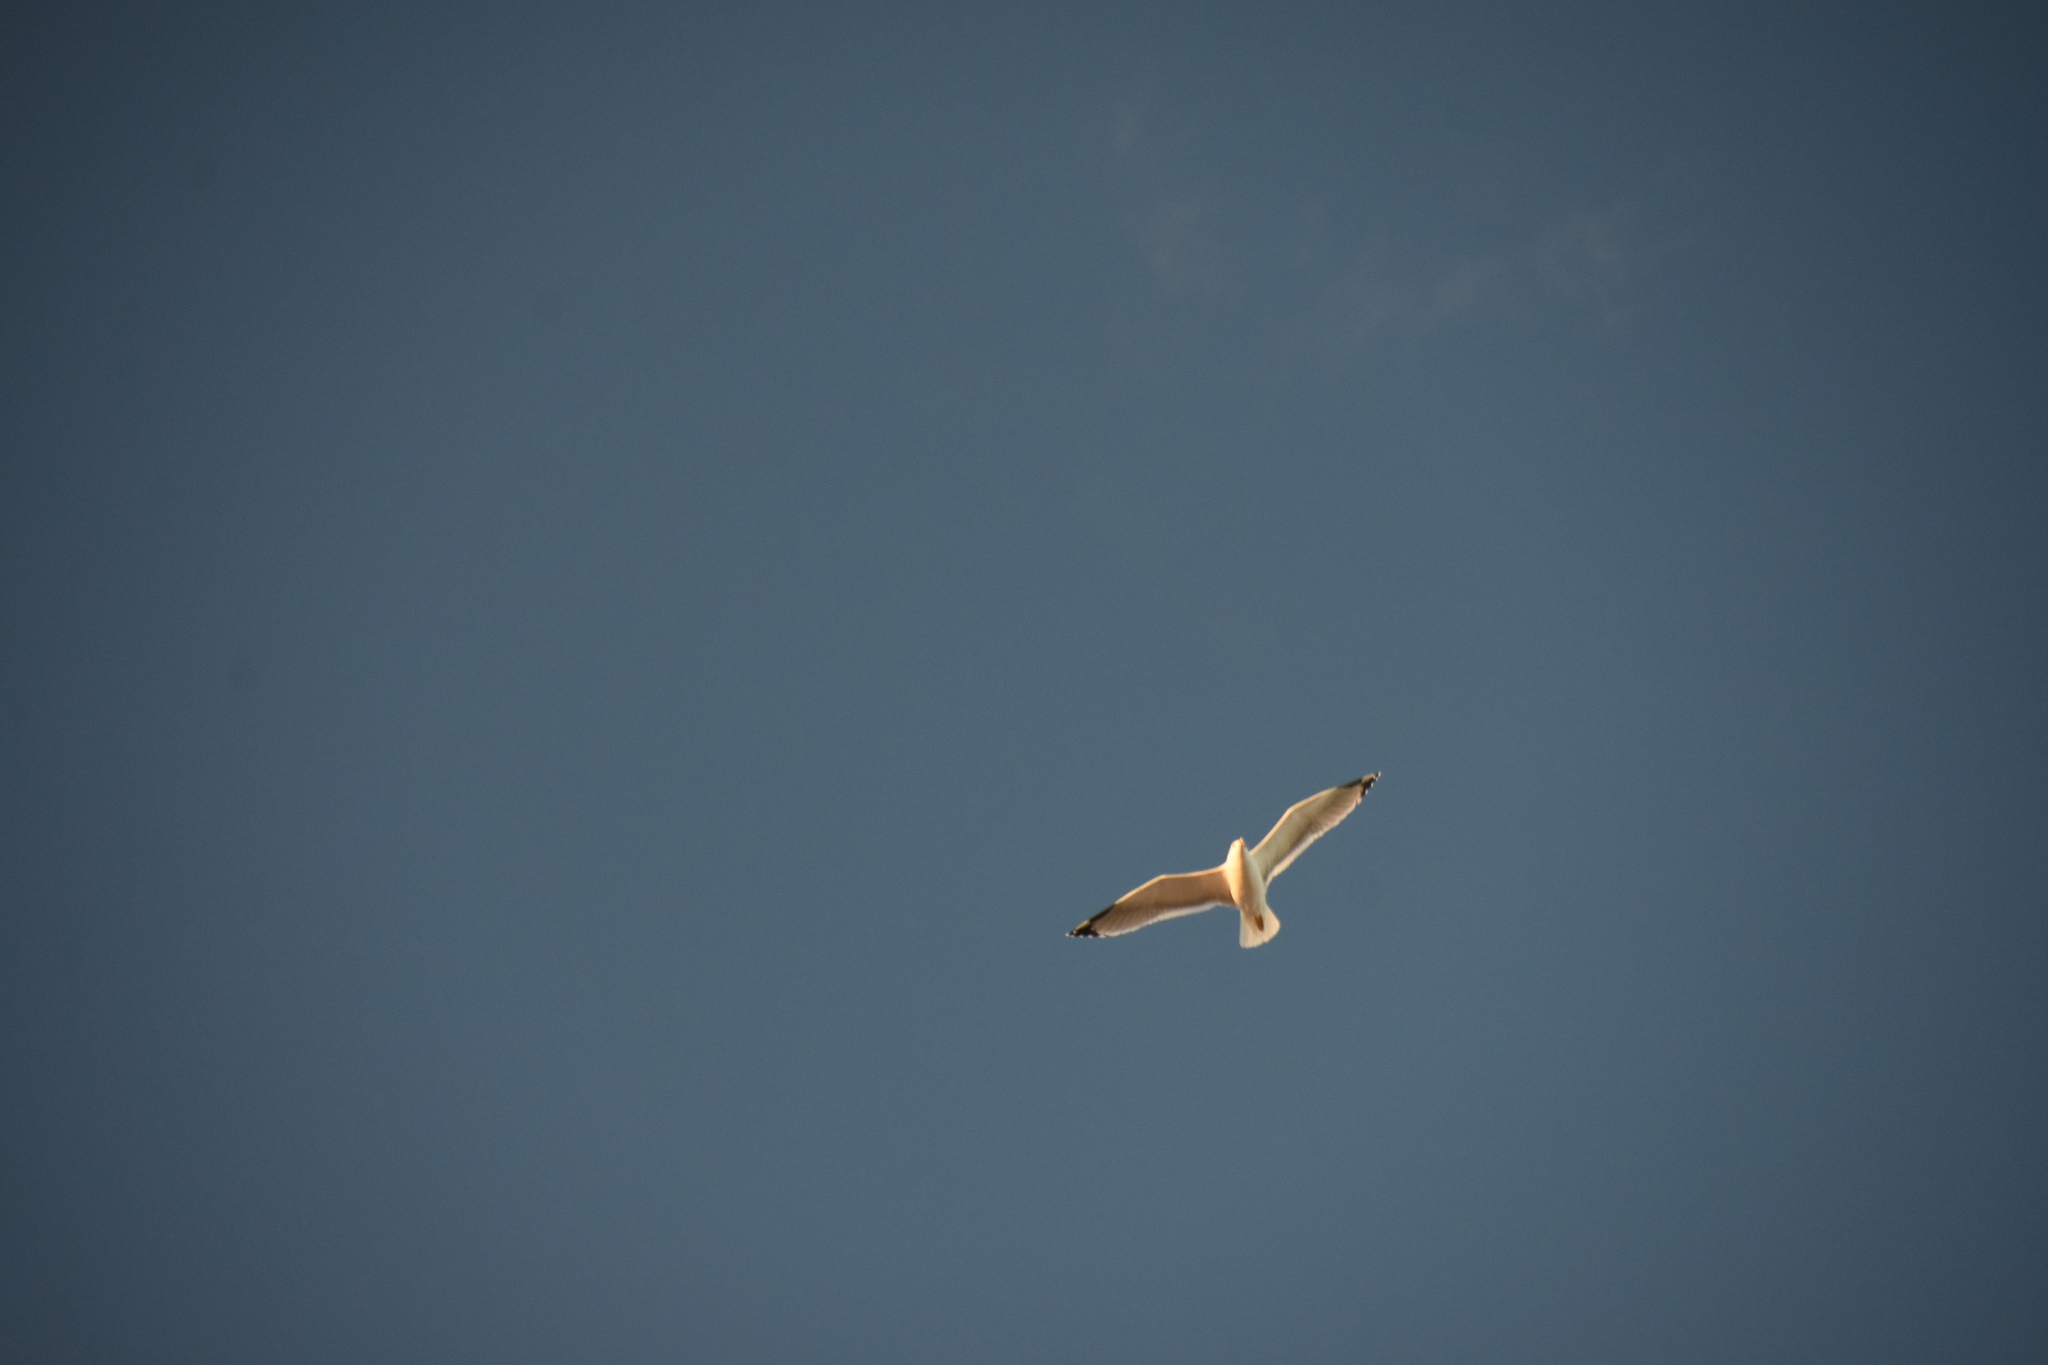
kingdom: Animalia
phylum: Chordata
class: Aves
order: Charadriiformes
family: Laridae
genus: Larus
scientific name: Larus michahellis
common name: Yellow-legged gull
